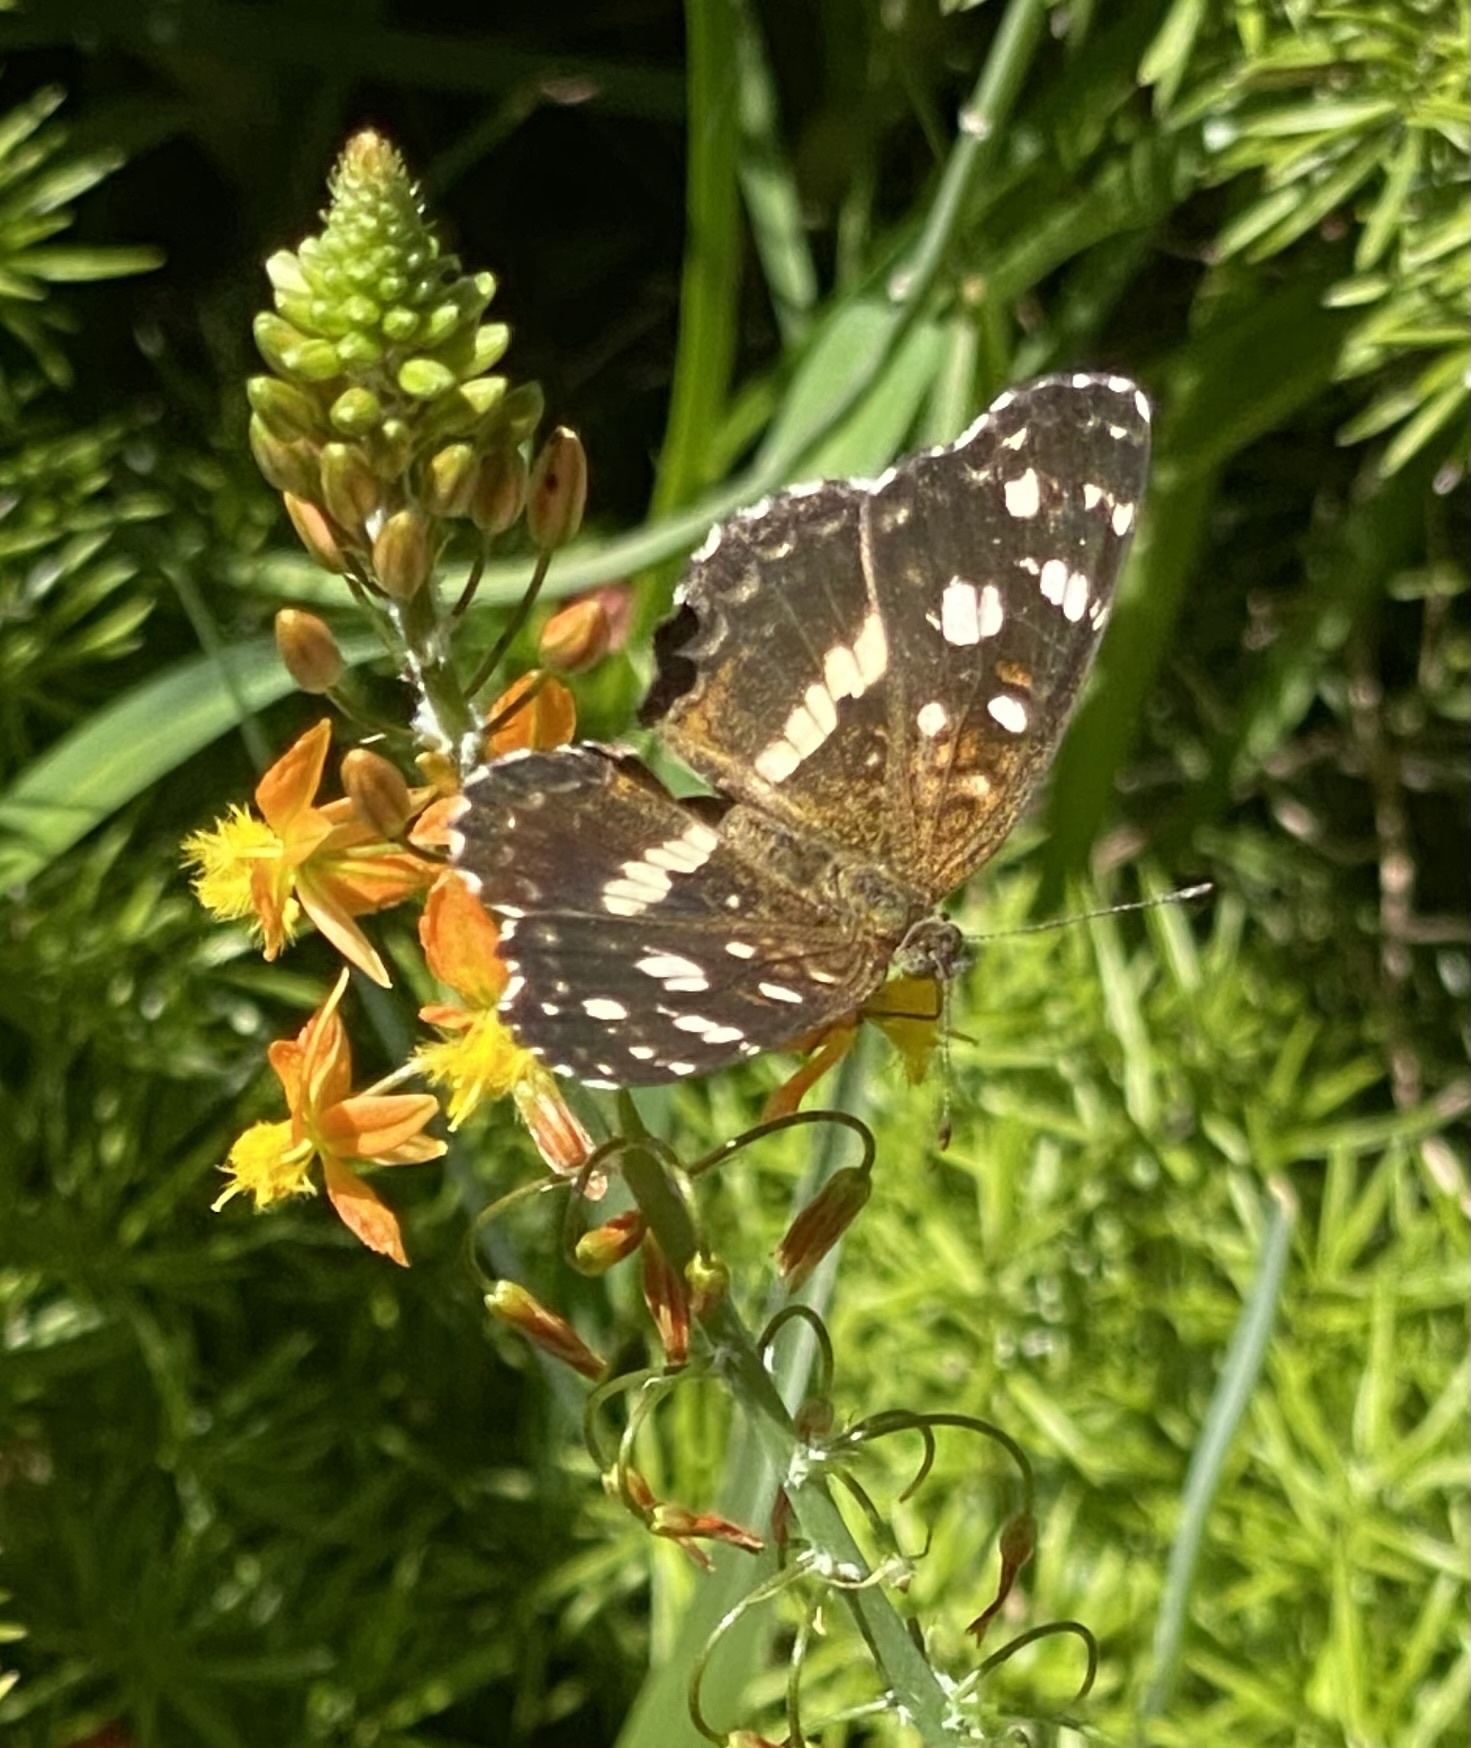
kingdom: Animalia
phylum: Arthropoda
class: Insecta
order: Lepidoptera
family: Nymphalidae
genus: Ortilia
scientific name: Ortilia ithra
